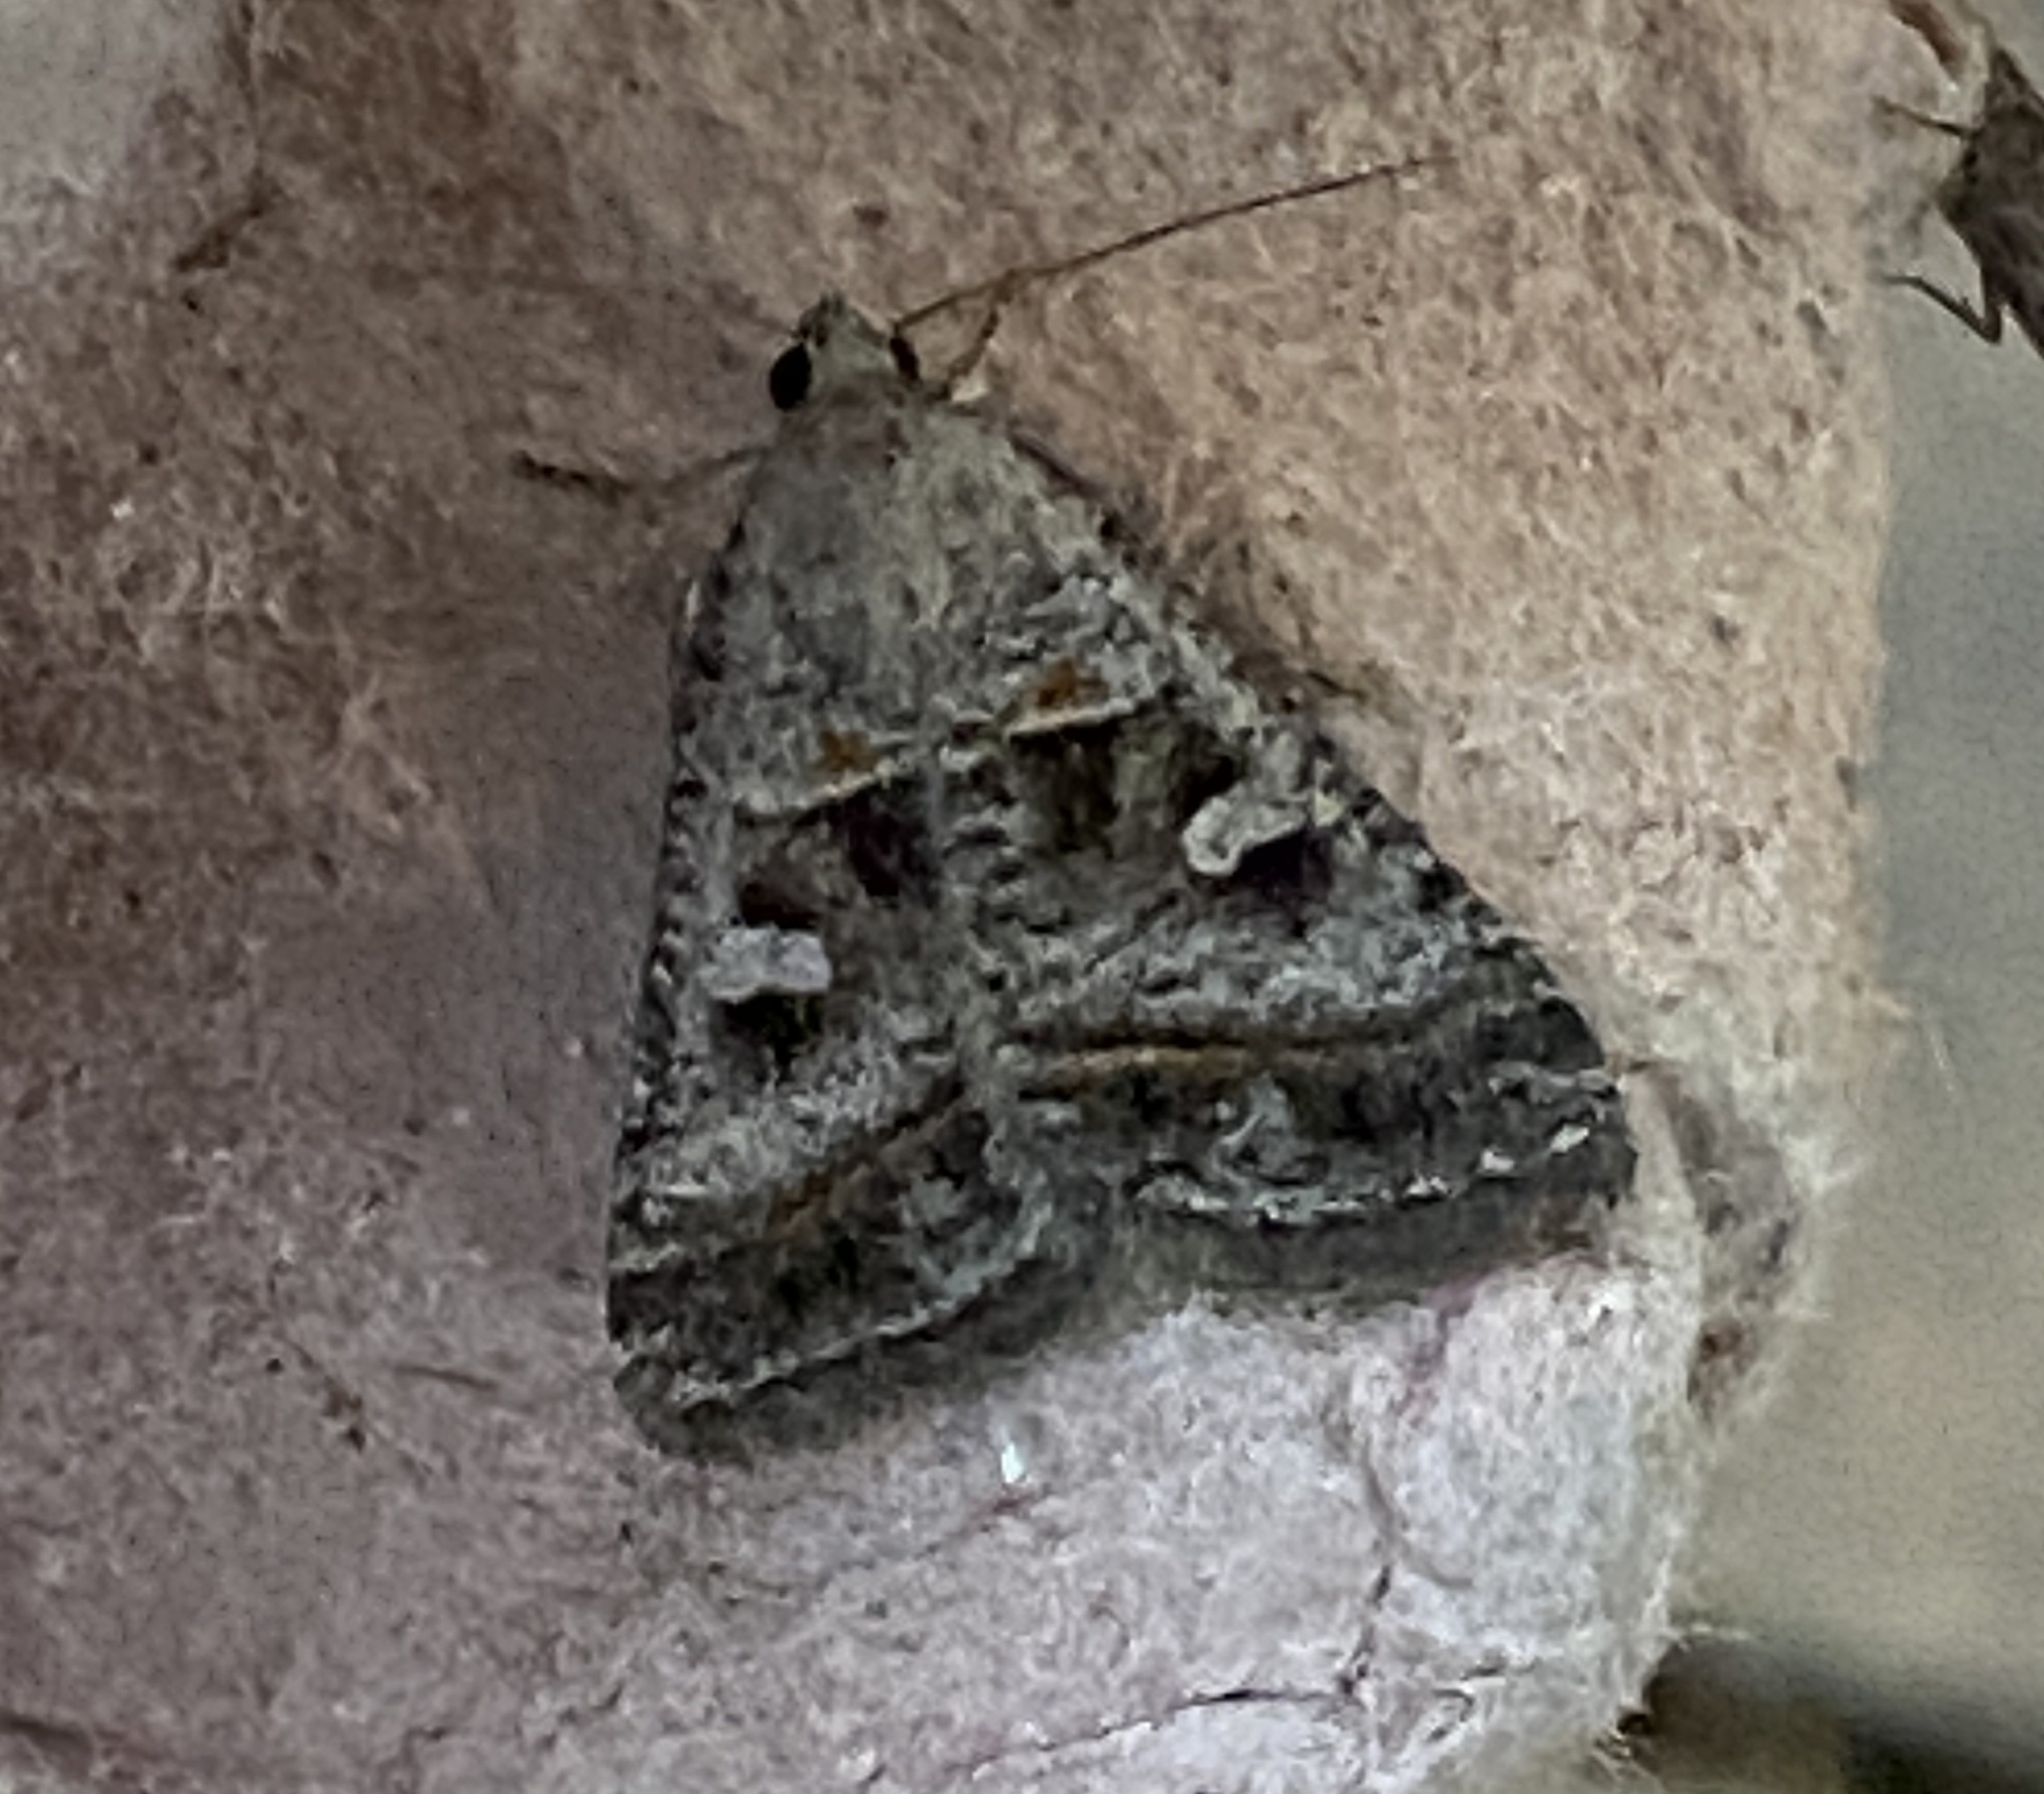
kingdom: Animalia
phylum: Arthropoda
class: Insecta
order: Lepidoptera
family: Erebidae
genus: Acantholipes
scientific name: Acantholipes juba
